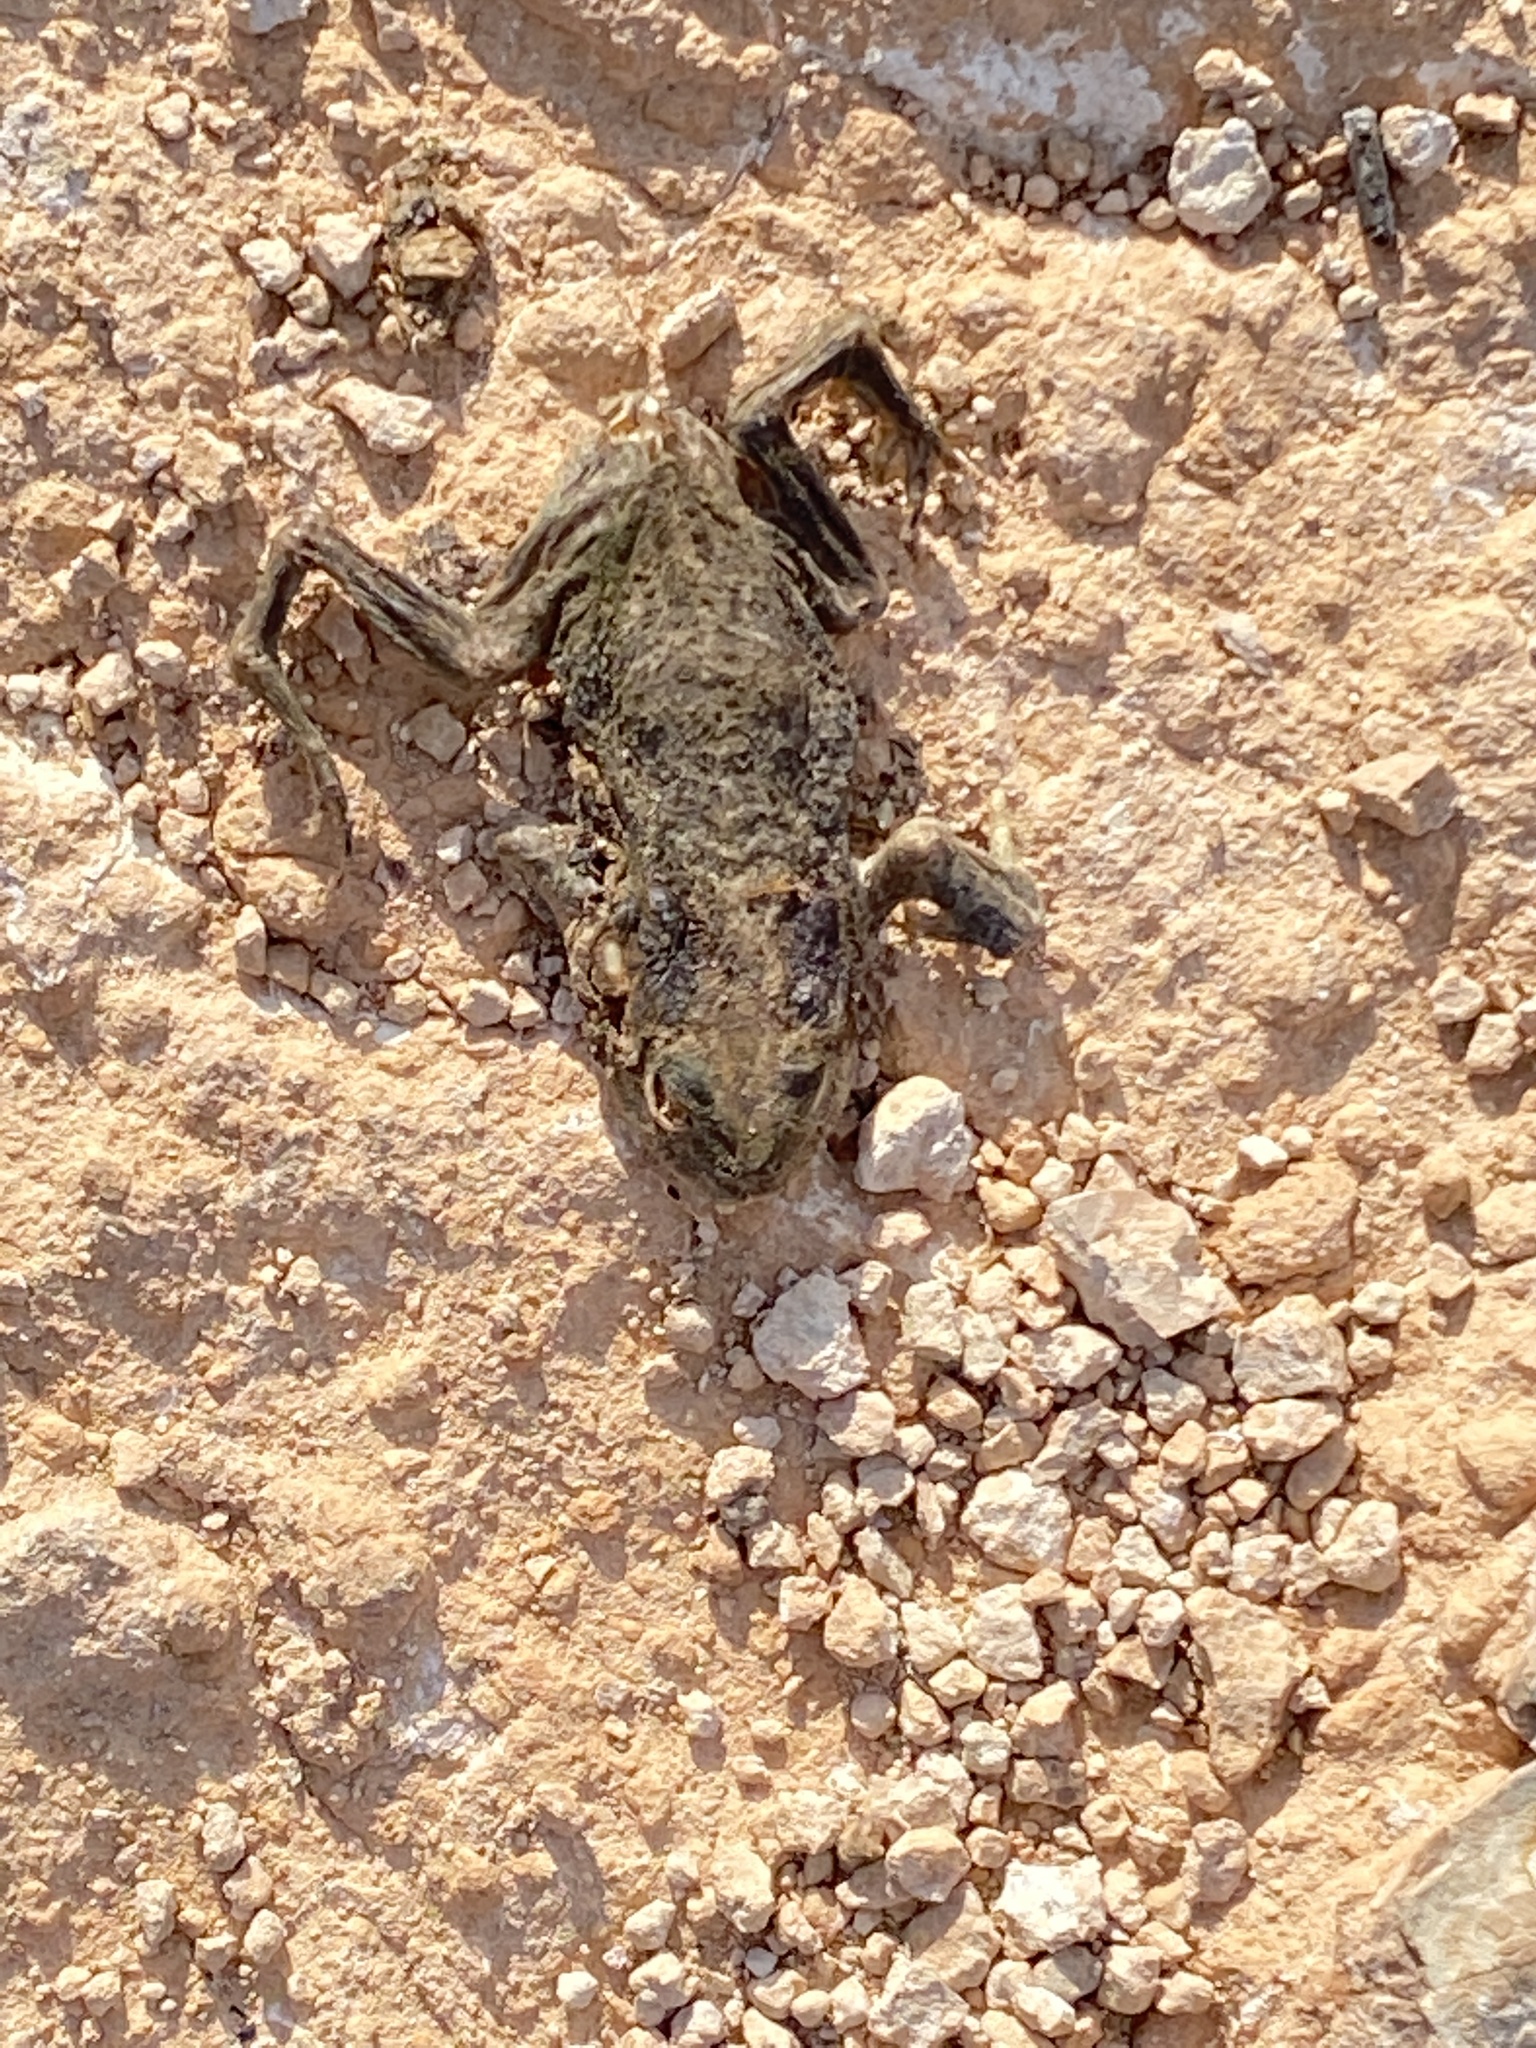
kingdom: Animalia
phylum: Chordata
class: Amphibia
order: Anura
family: Bufonidae
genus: Bufotes
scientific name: Bufotes boulengeri
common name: African green toad
